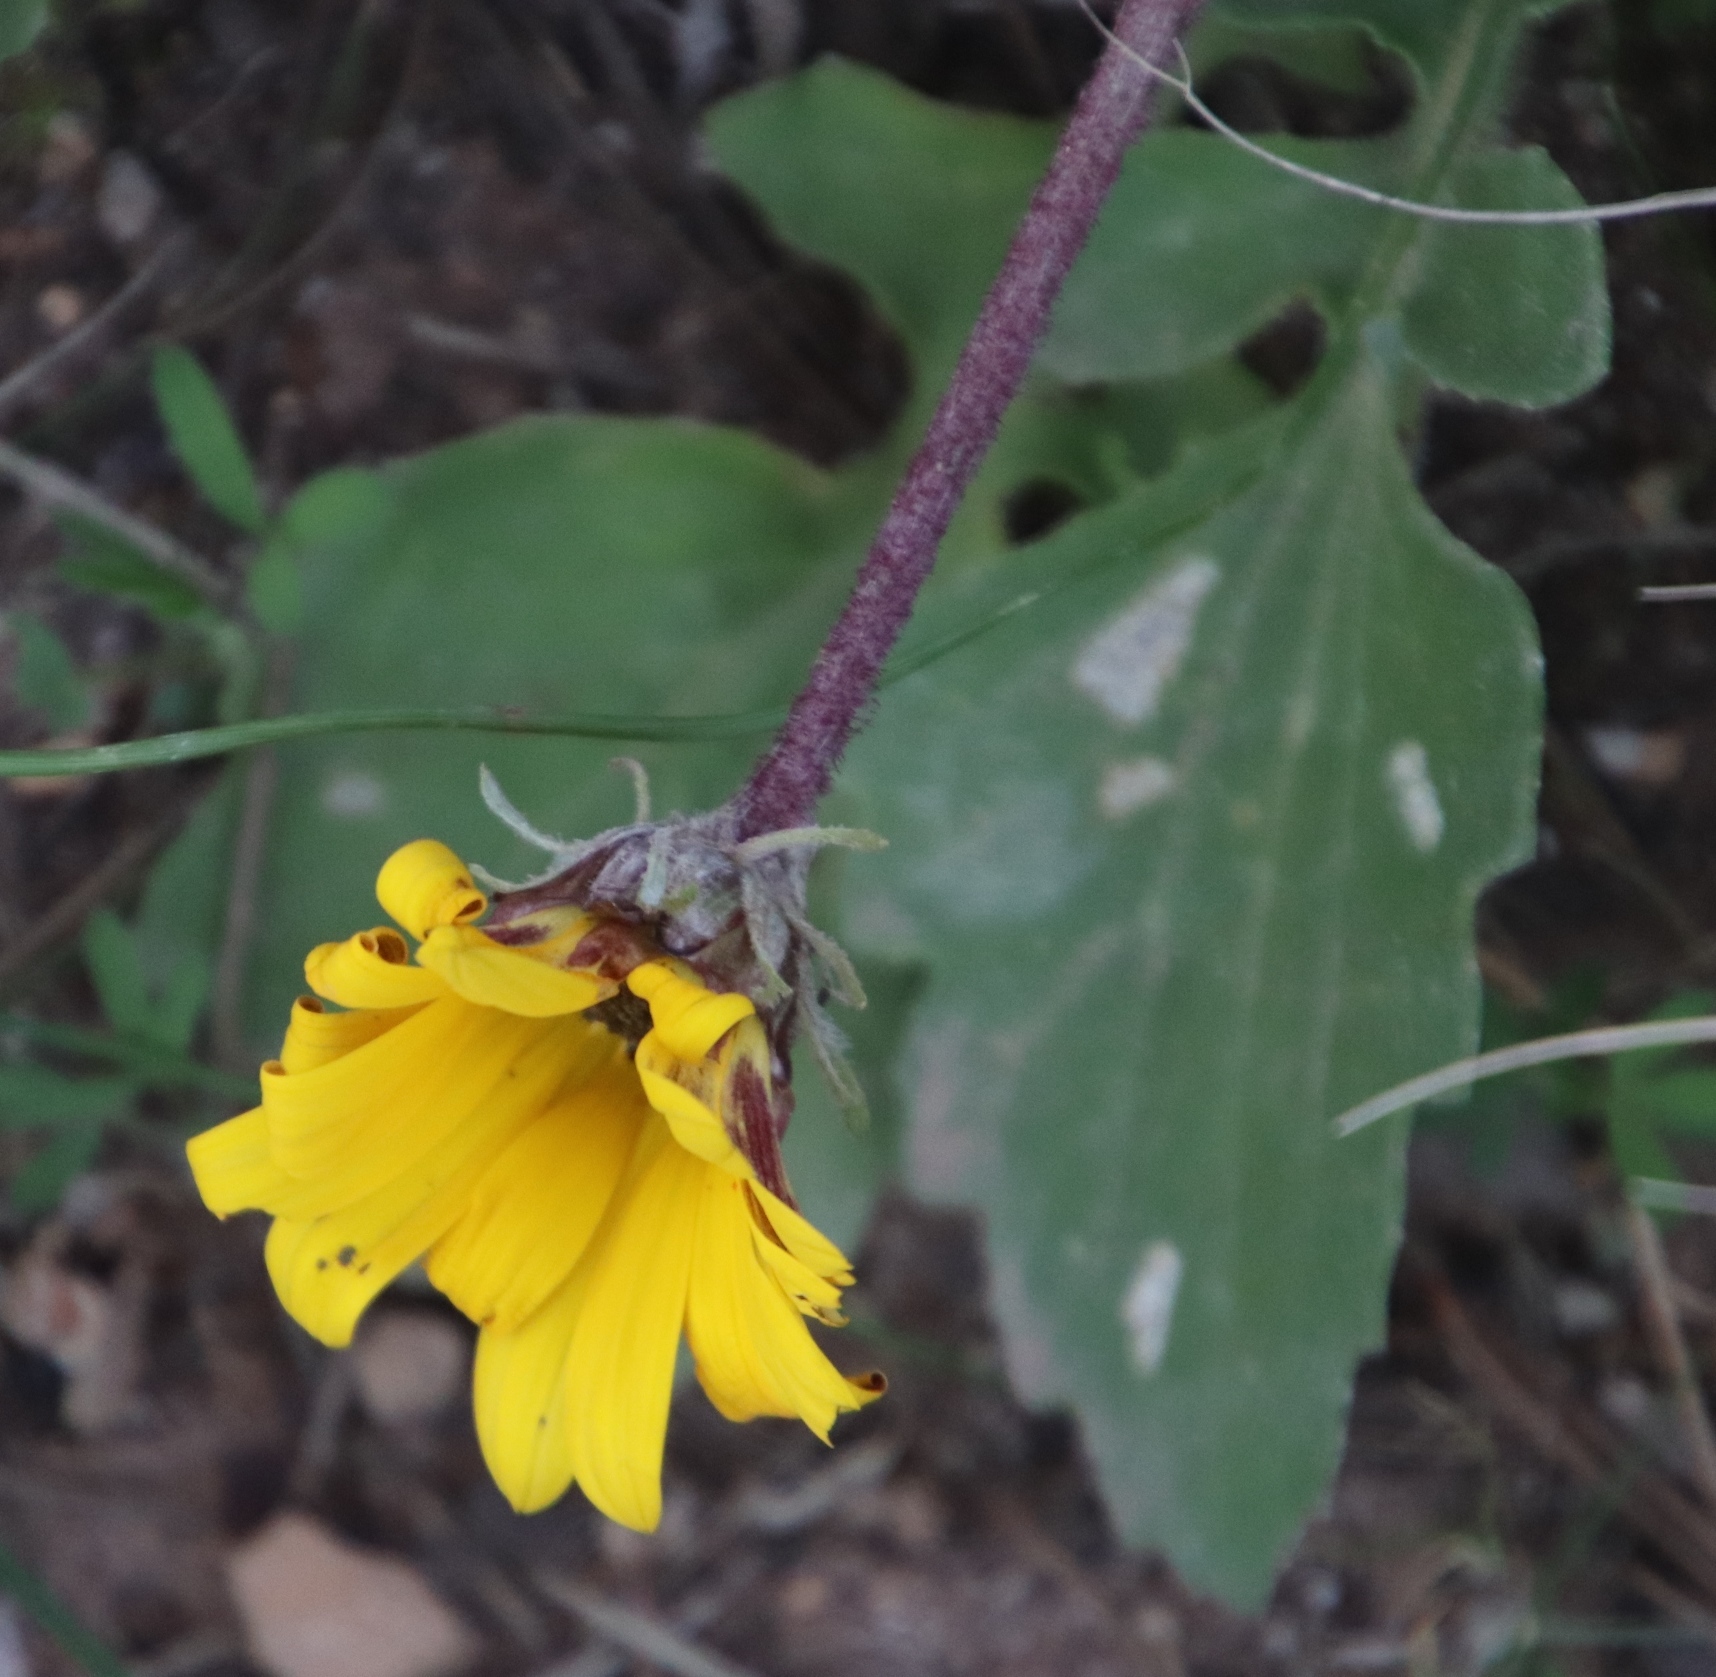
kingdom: Plantae
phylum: Tracheophyta
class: Magnoliopsida
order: Asterales
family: Asteraceae
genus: Arctotheca
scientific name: Arctotheca calendula
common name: Capeweed
